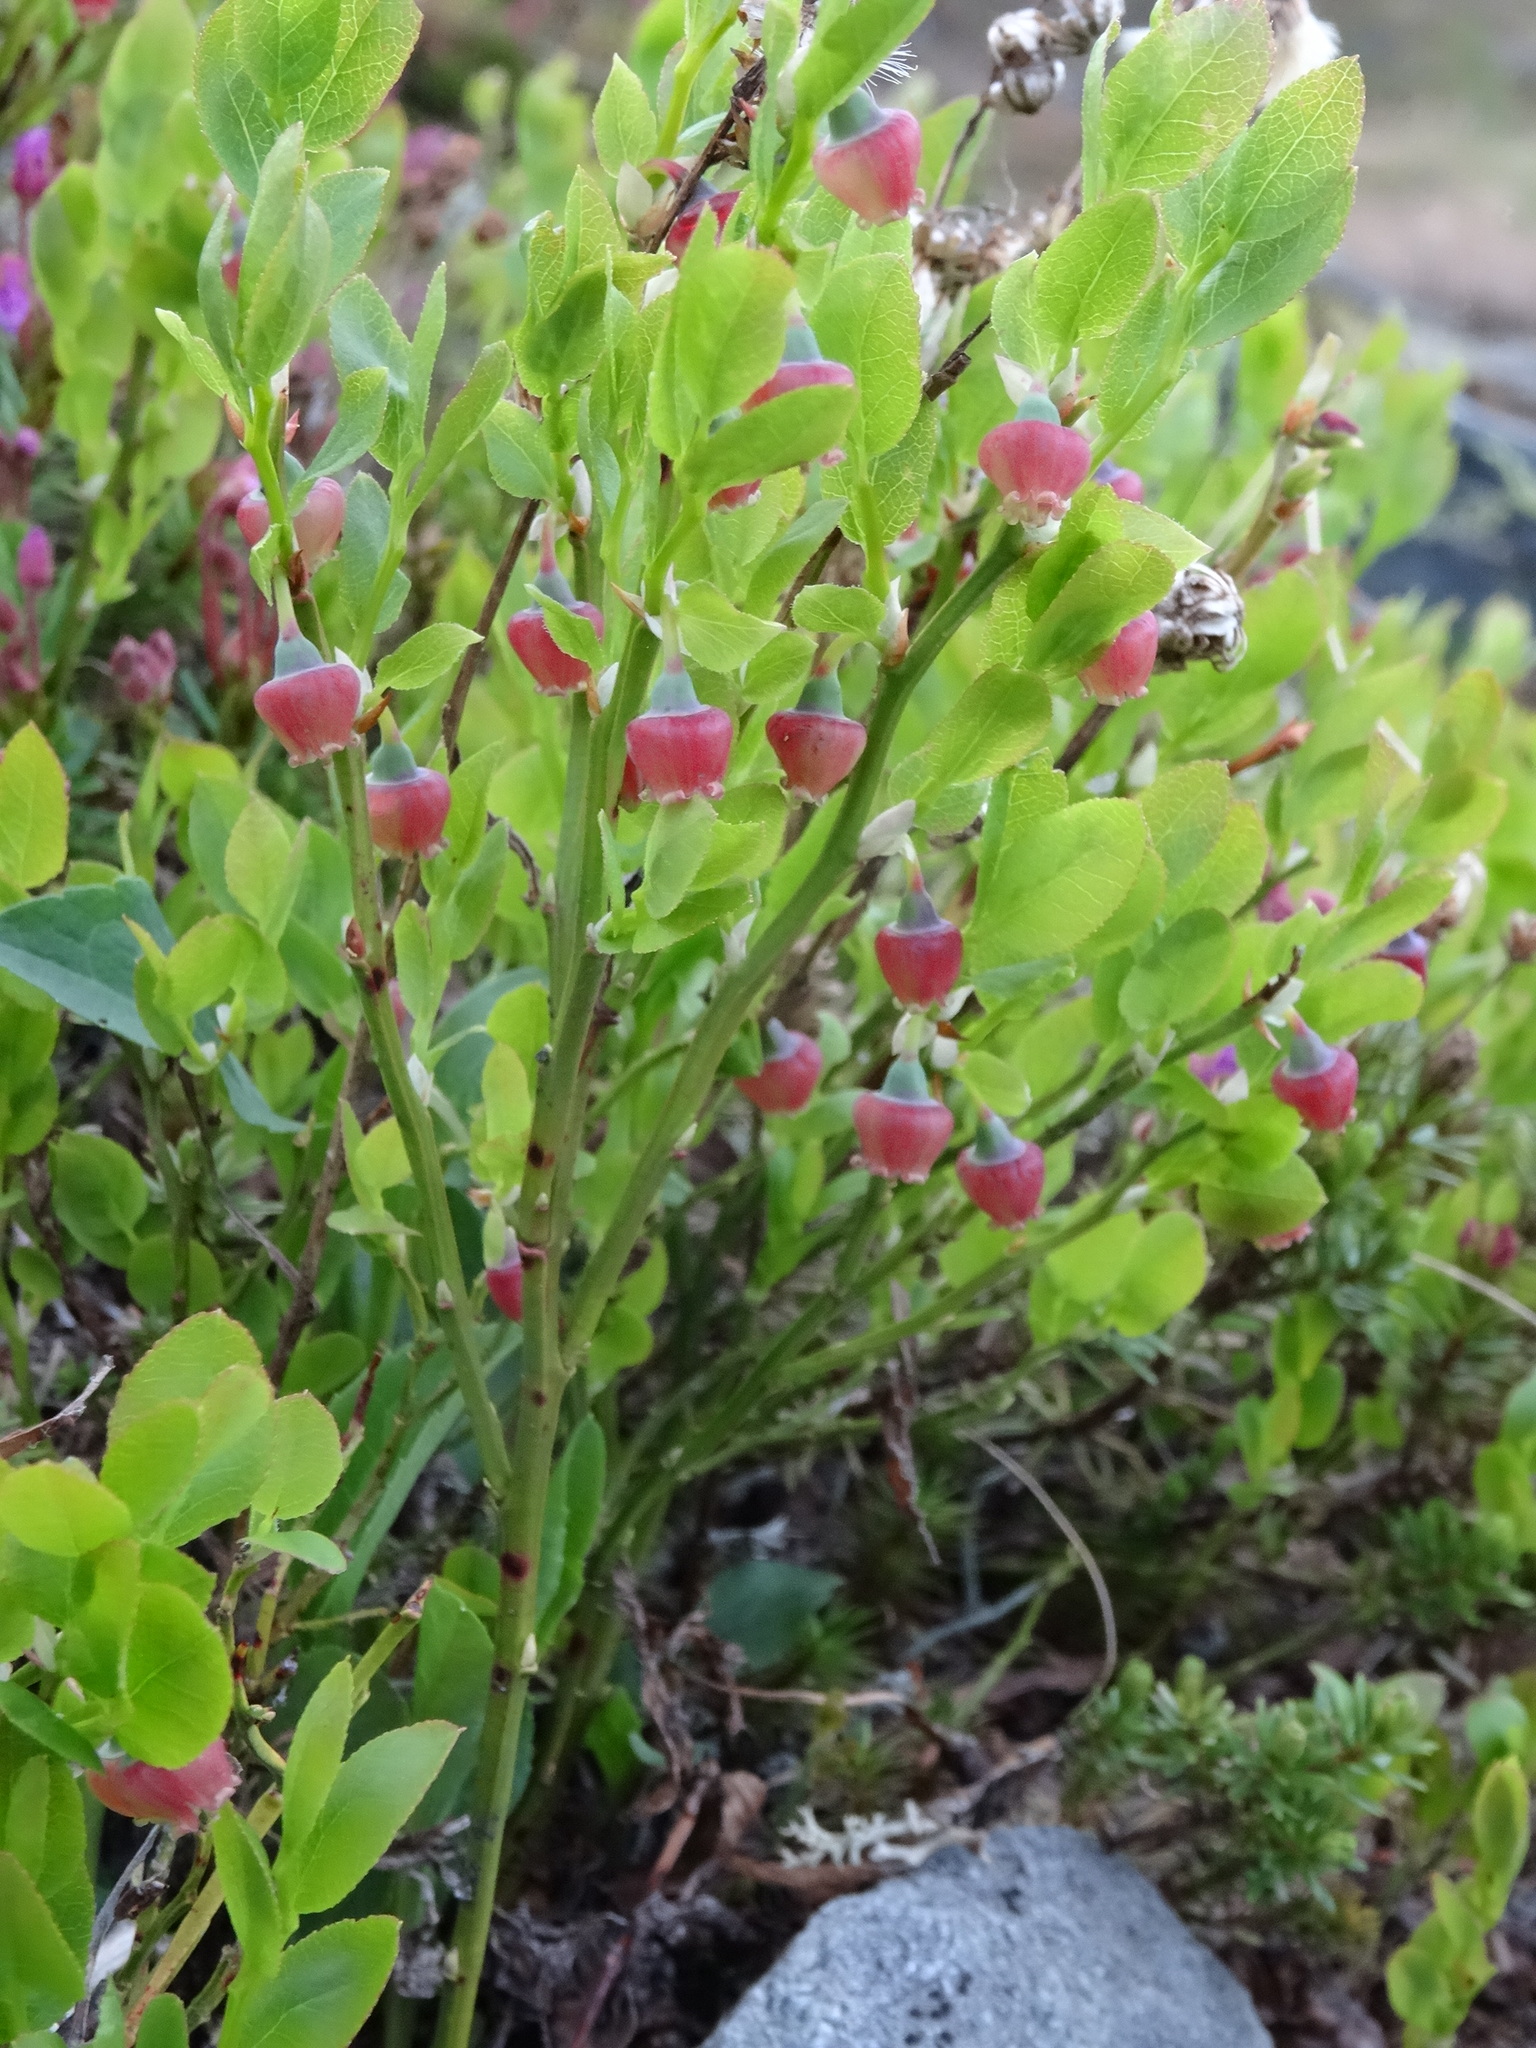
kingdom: Plantae
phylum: Tracheophyta
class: Magnoliopsida
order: Ericales
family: Ericaceae
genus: Vaccinium
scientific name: Vaccinium myrtillus
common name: Bilberry
